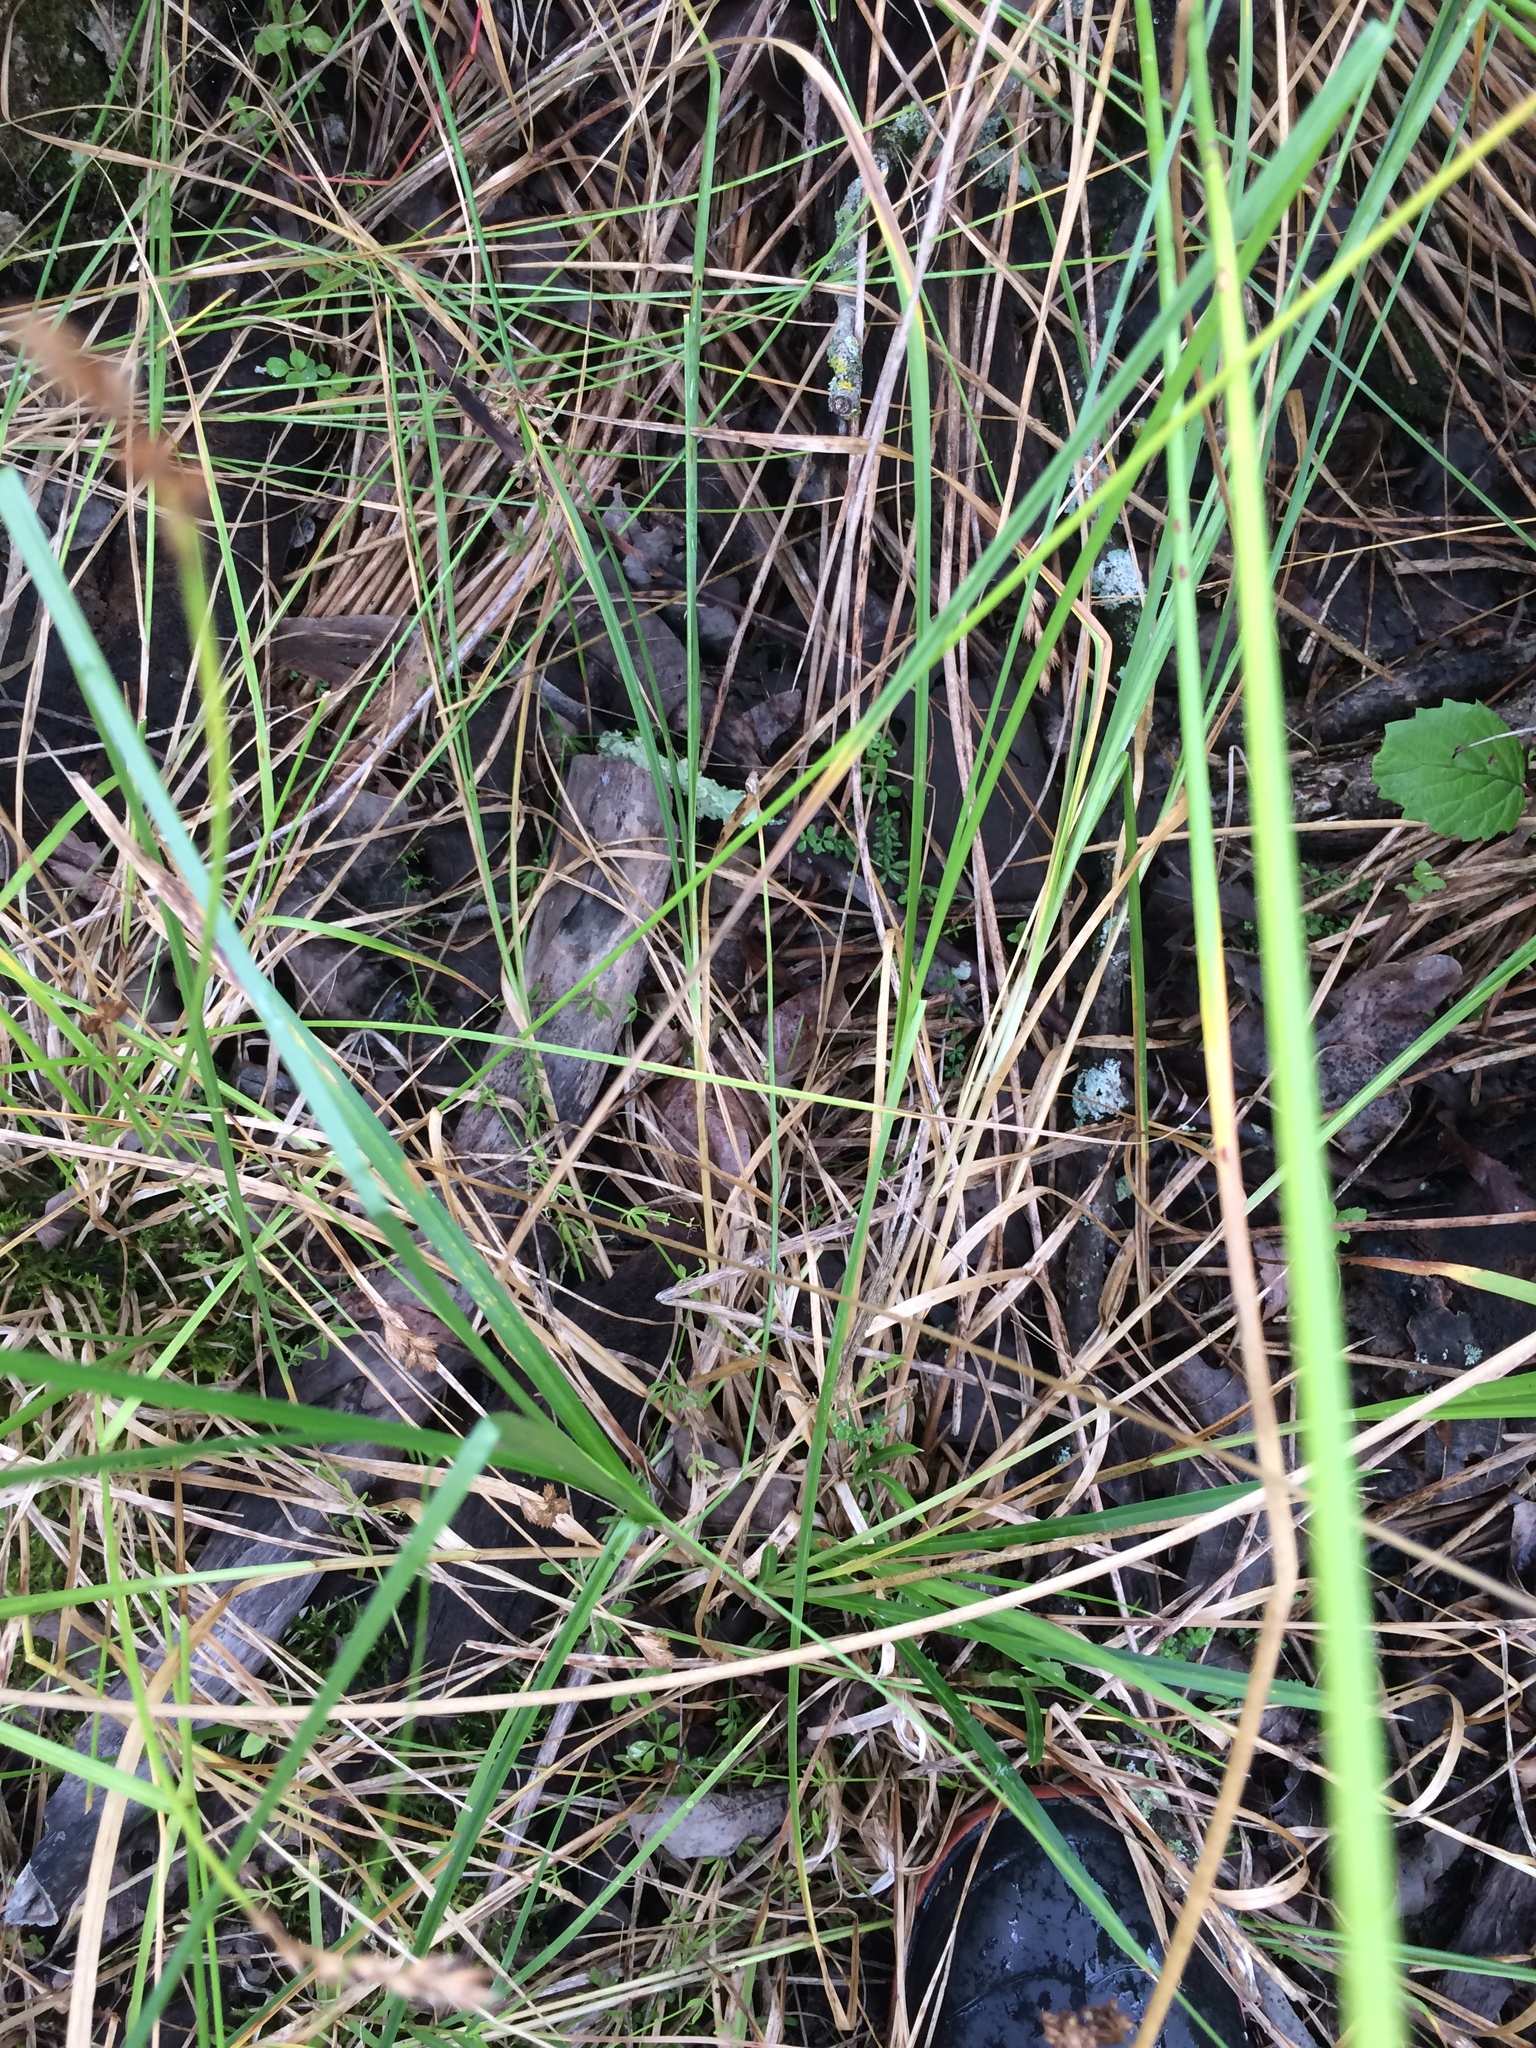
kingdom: Plantae
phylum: Tracheophyta
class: Liliopsida
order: Poales
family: Cyperaceae
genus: Carex
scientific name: Carex vulpinoidea
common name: American fox-sedge
